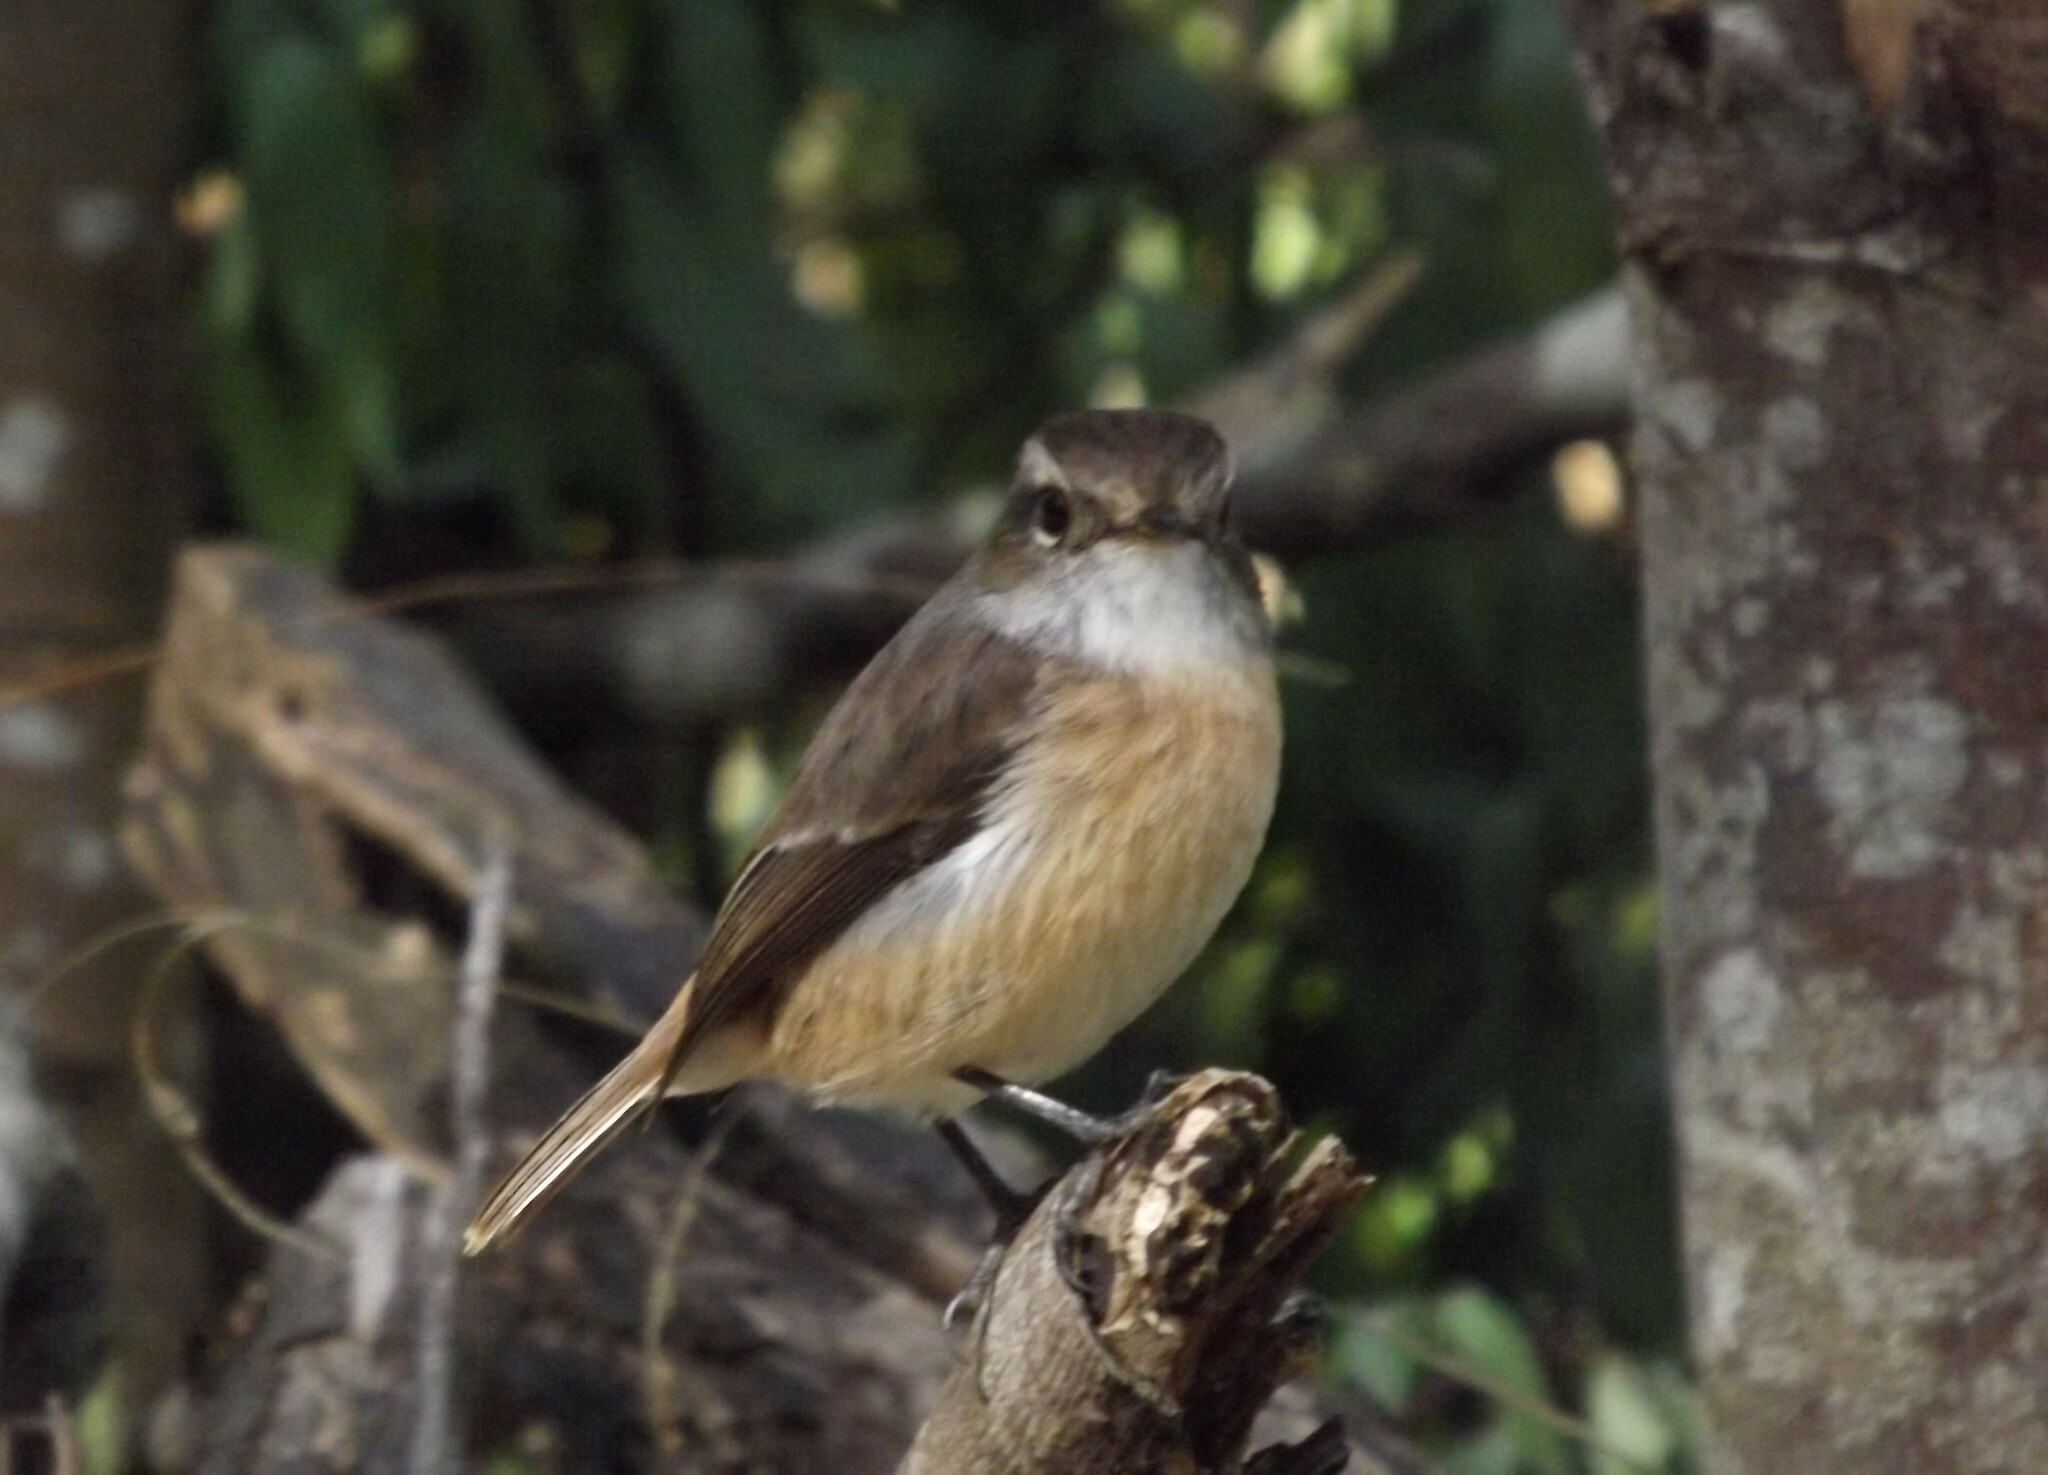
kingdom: Animalia
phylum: Chordata
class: Aves
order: Passeriformes
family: Muscicapidae
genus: Saxicola
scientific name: Saxicola tectes
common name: Reunion stonechat
